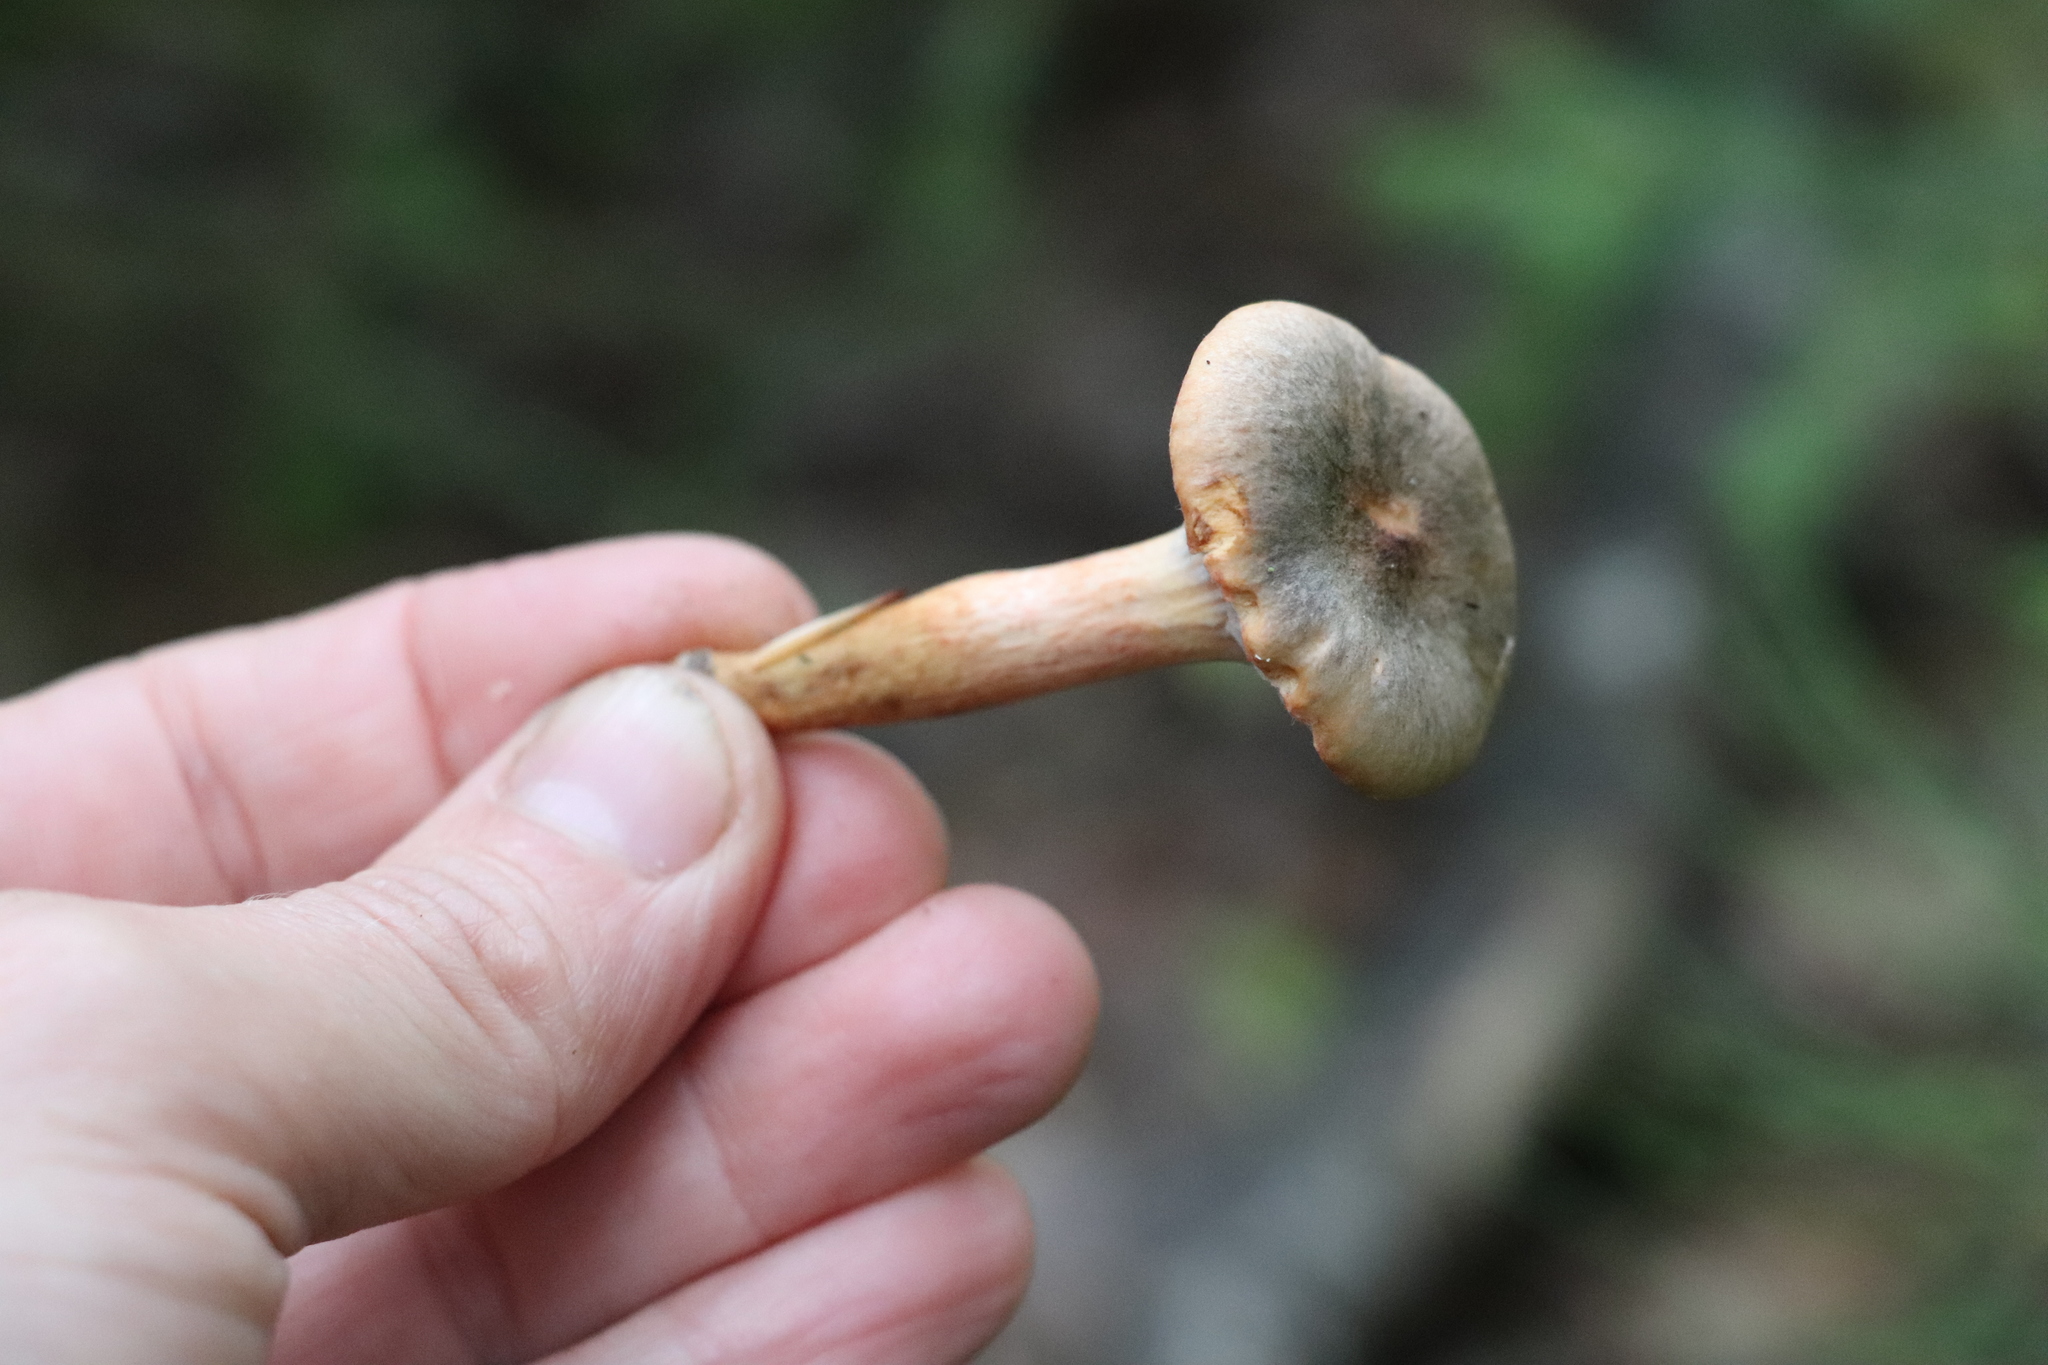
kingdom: Fungi
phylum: Basidiomycota
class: Agaricomycetes
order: Boletales
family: Gomphidiaceae
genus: Chroogomphus
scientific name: Chroogomphus rutilus
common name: Copper spike
